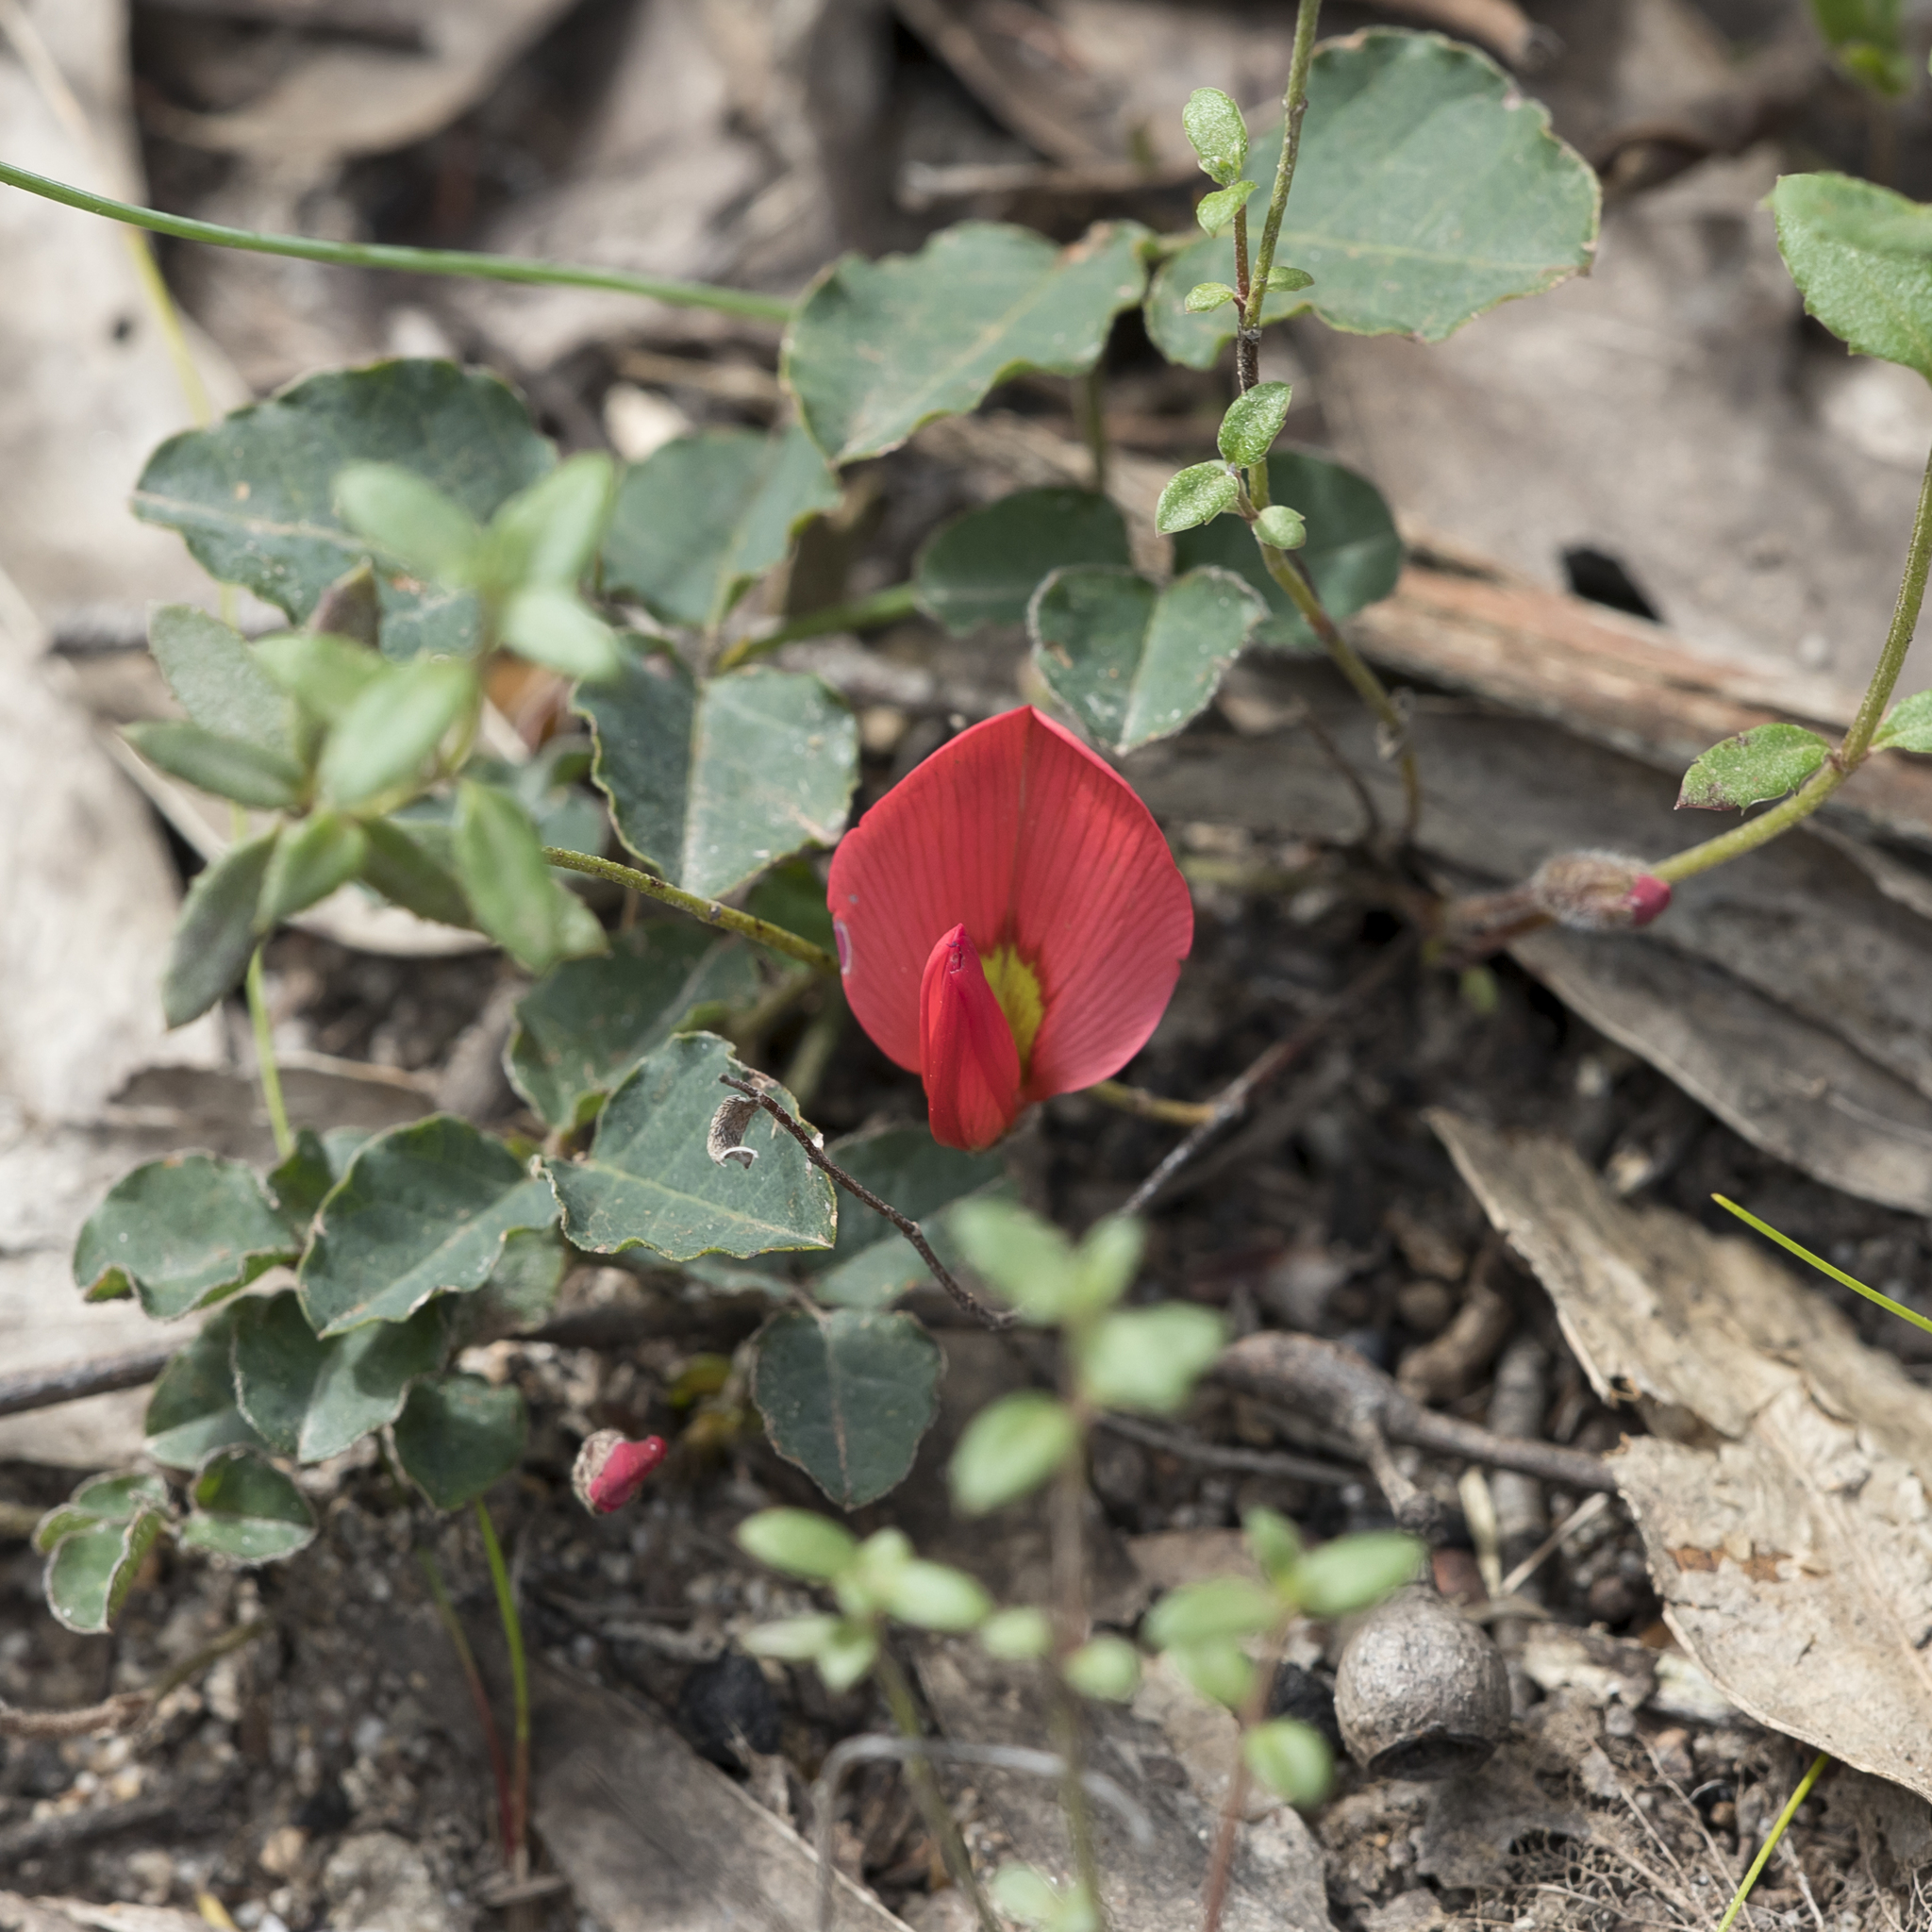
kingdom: Plantae
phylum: Tracheophyta
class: Magnoliopsida
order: Fabales
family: Fabaceae
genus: Kennedia
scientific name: Kennedia prostrata
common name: Running-postman
